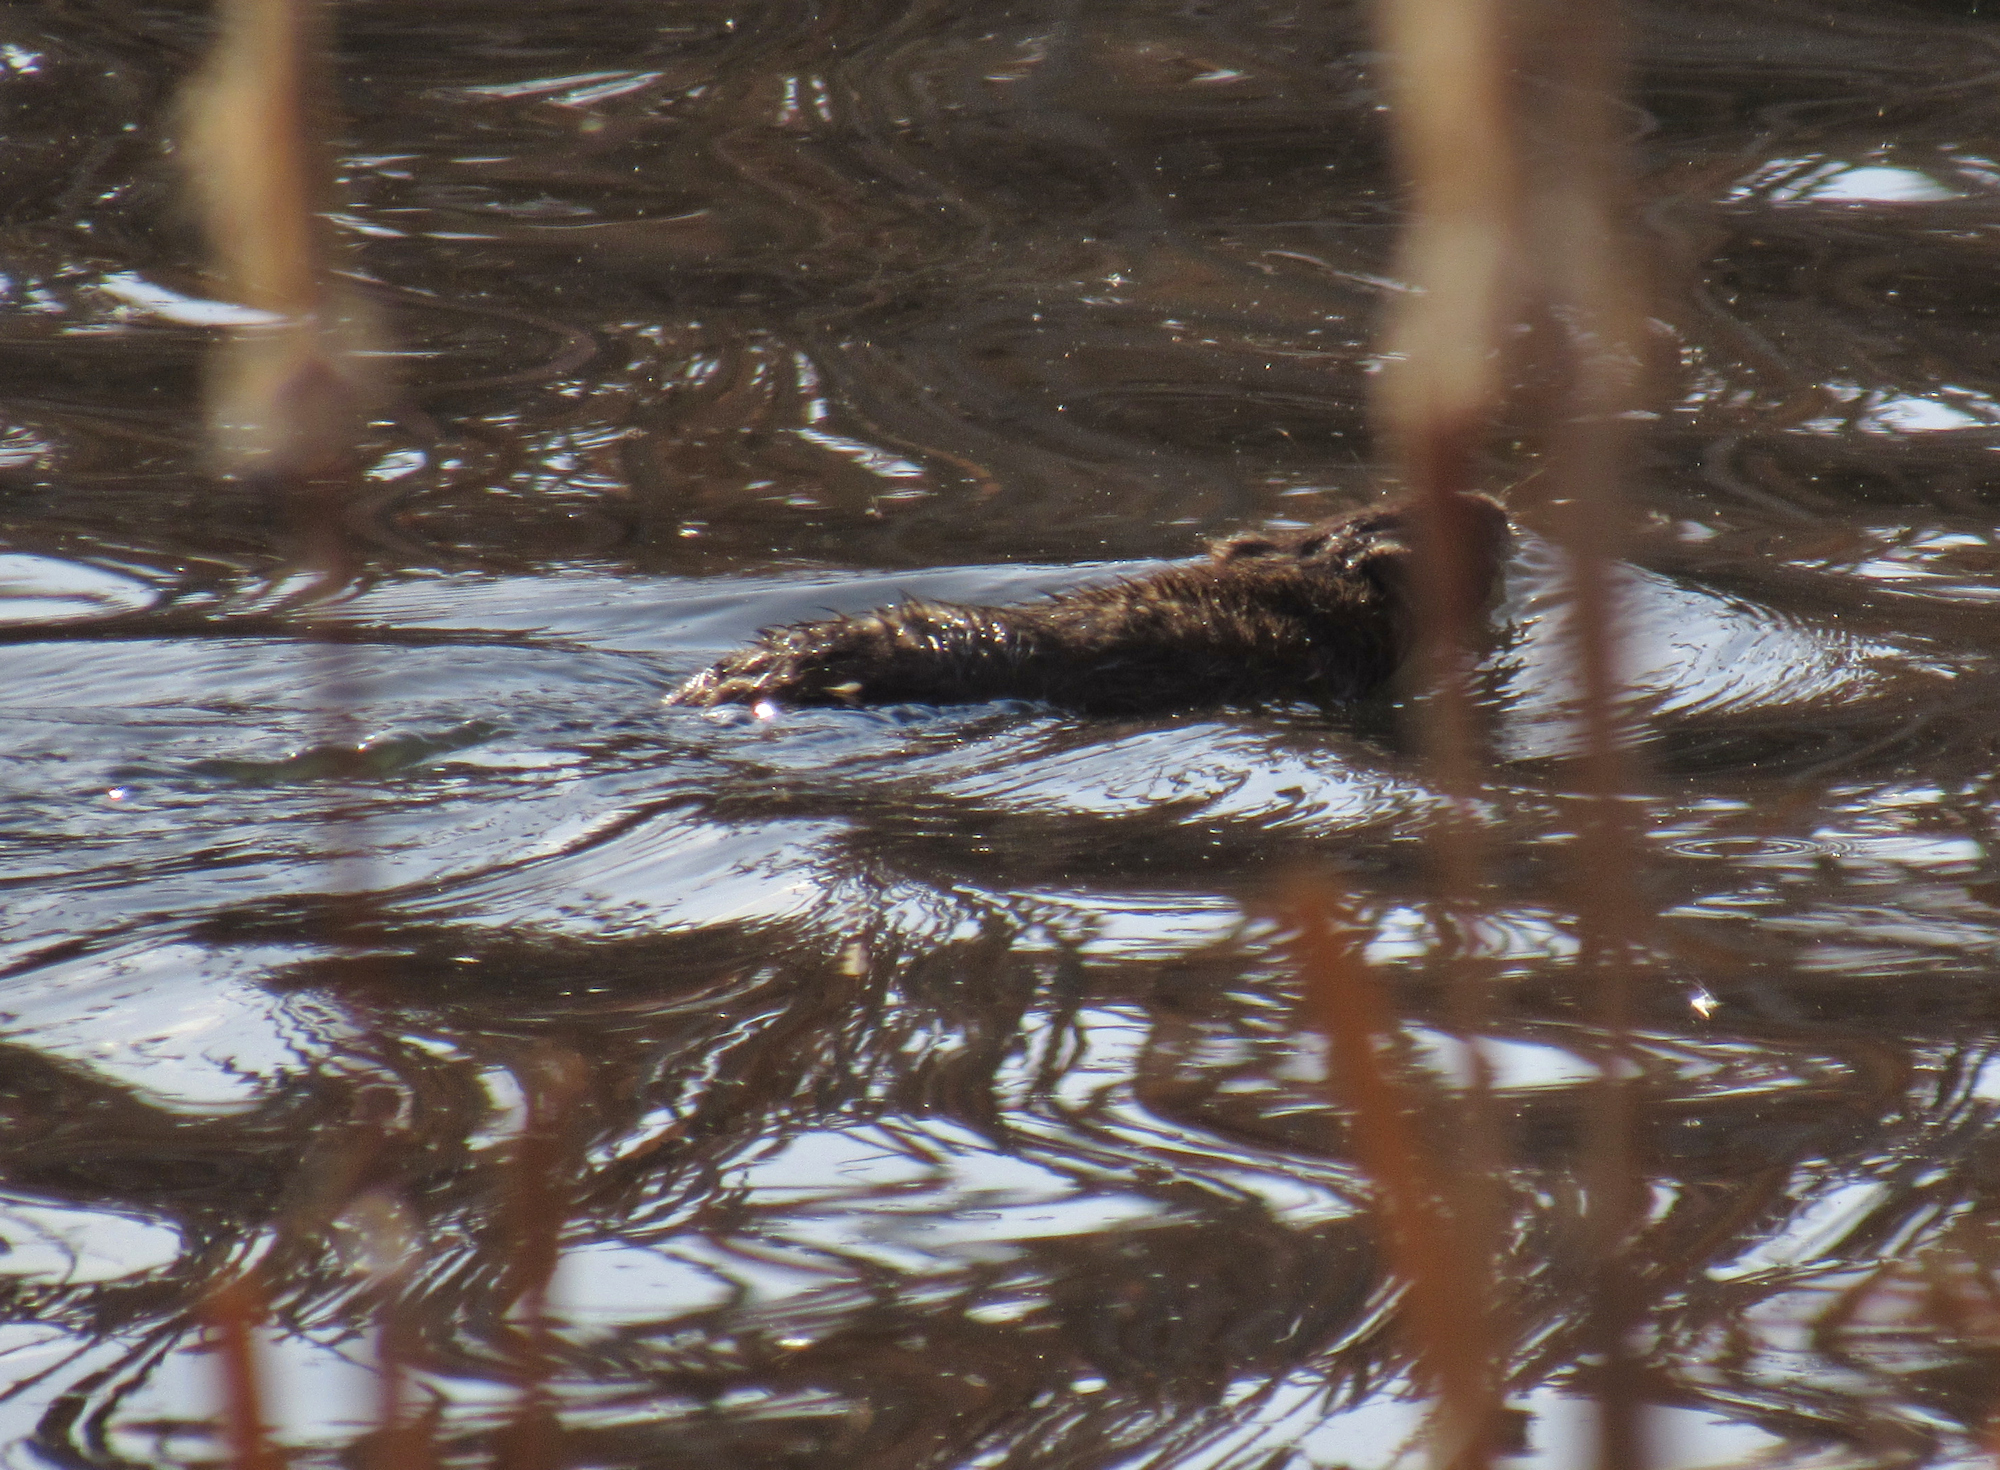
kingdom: Animalia
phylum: Chordata
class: Mammalia
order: Rodentia
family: Cricetidae
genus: Ondatra
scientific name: Ondatra zibethicus
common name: Muskrat
